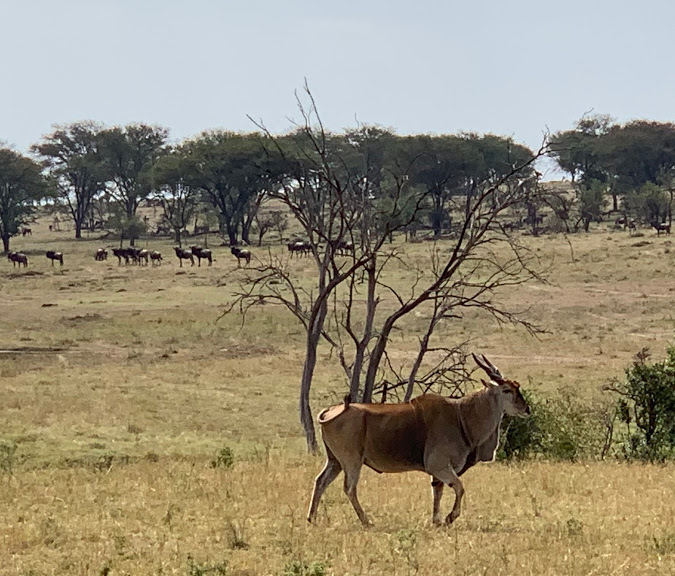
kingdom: Animalia
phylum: Chordata
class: Mammalia
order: Artiodactyla
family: Bovidae
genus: Taurotragus
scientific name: Taurotragus oryx
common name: Common eland
